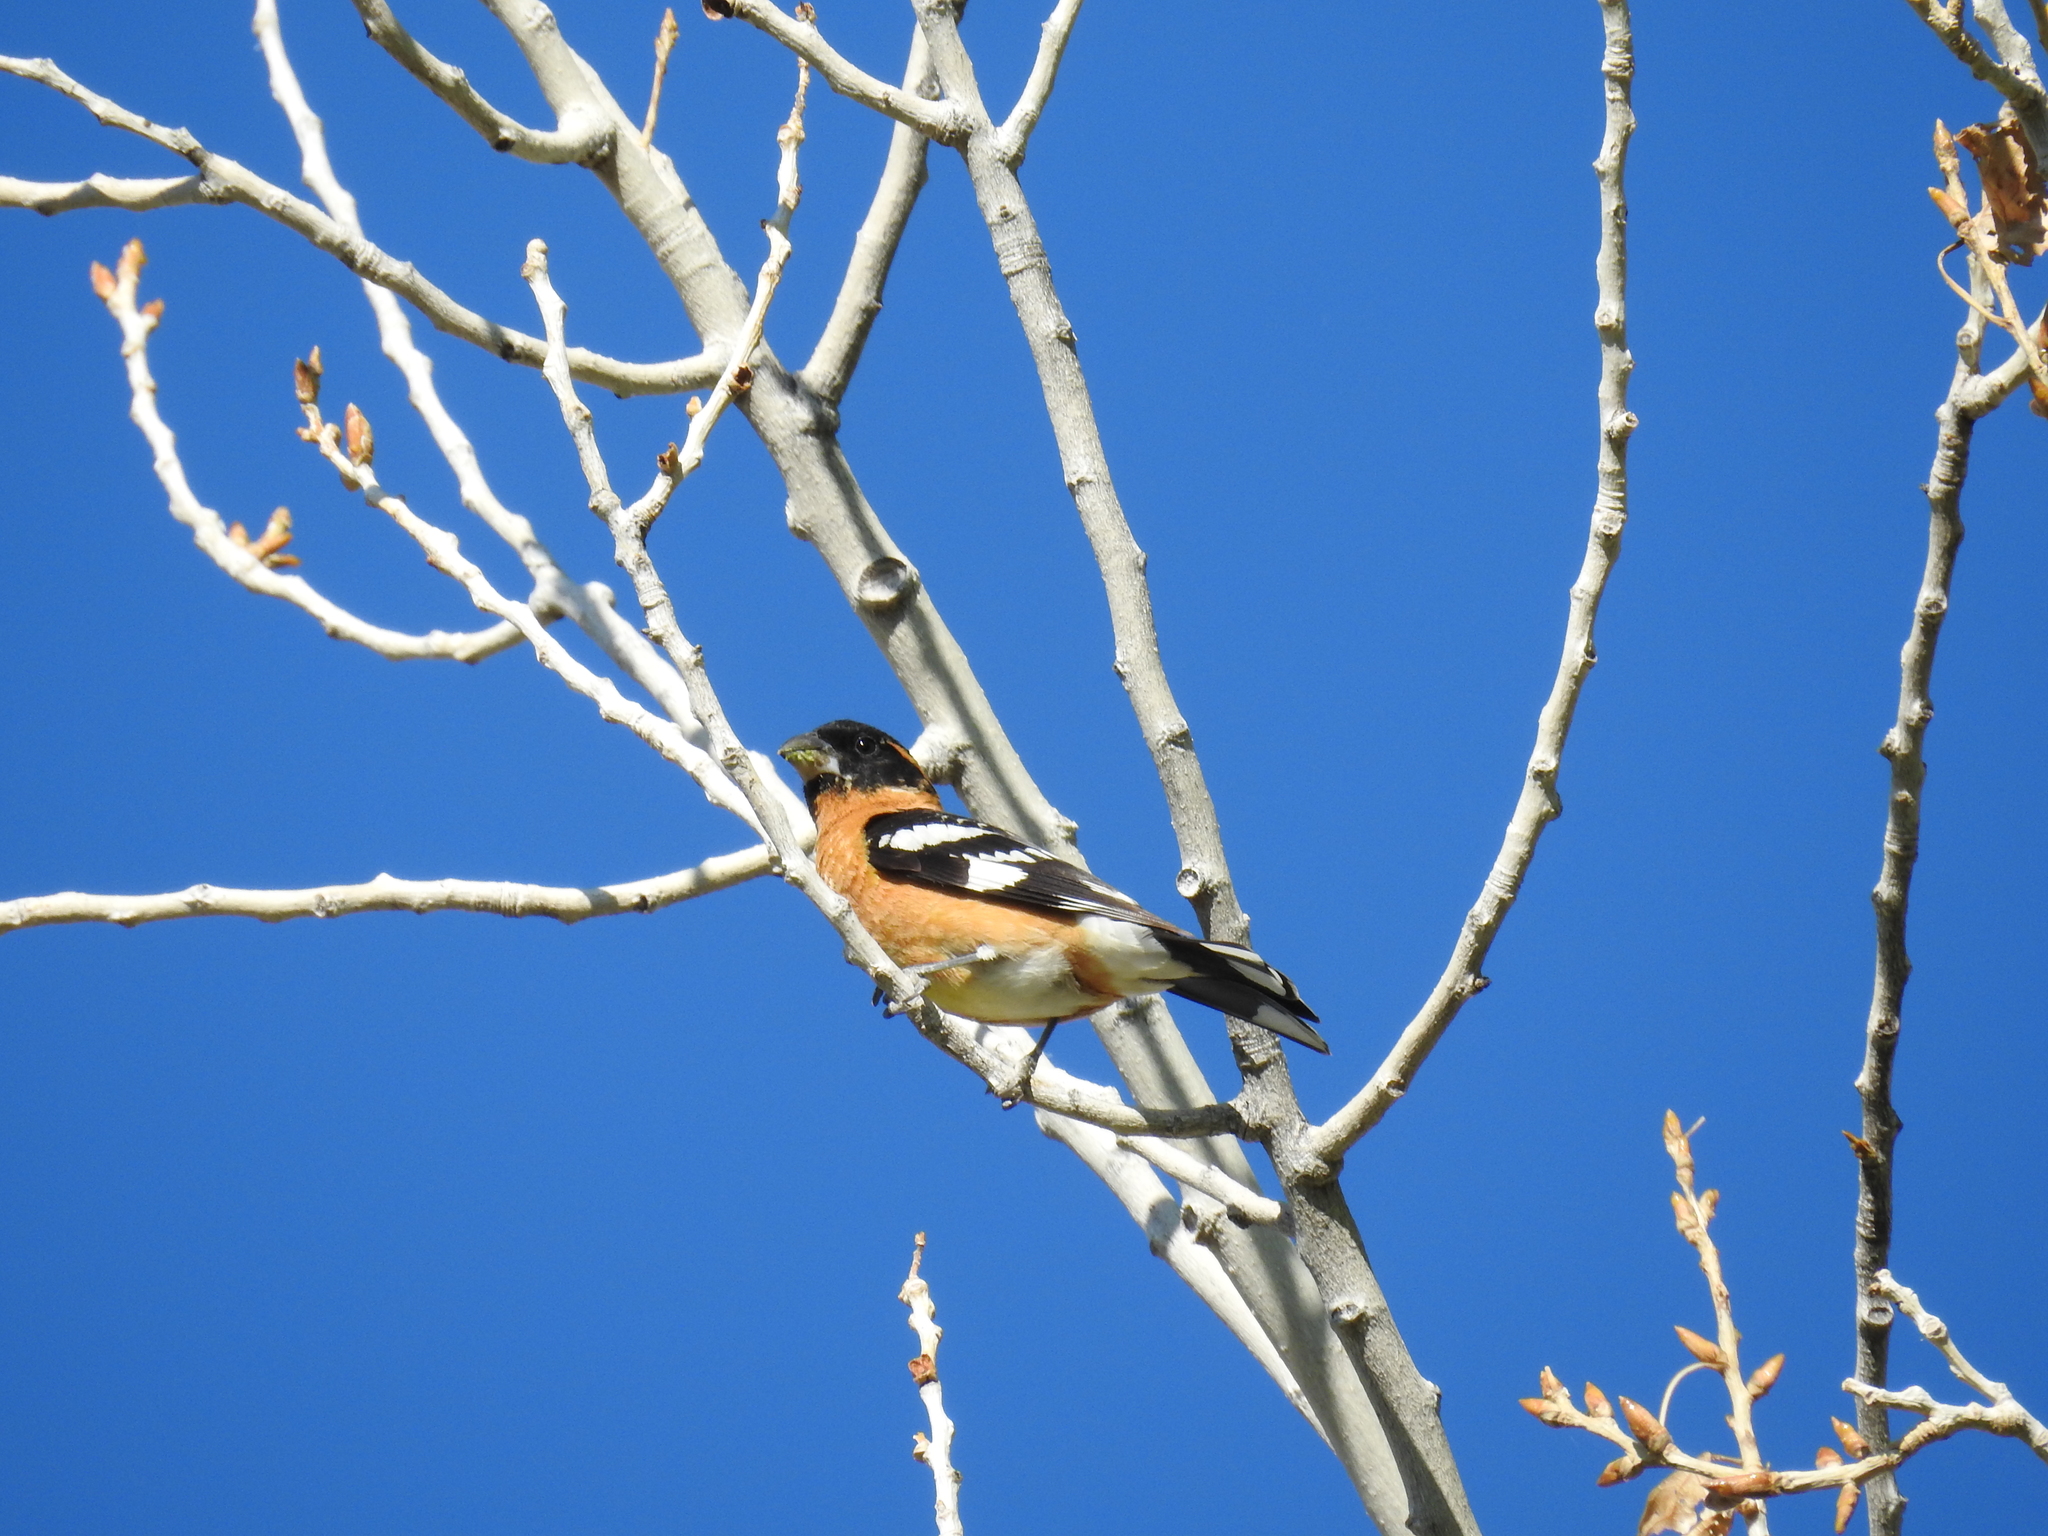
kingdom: Animalia
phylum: Chordata
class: Aves
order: Passeriformes
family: Cardinalidae
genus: Pheucticus
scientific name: Pheucticus melanocephalus
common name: Black-headed grosbeak
